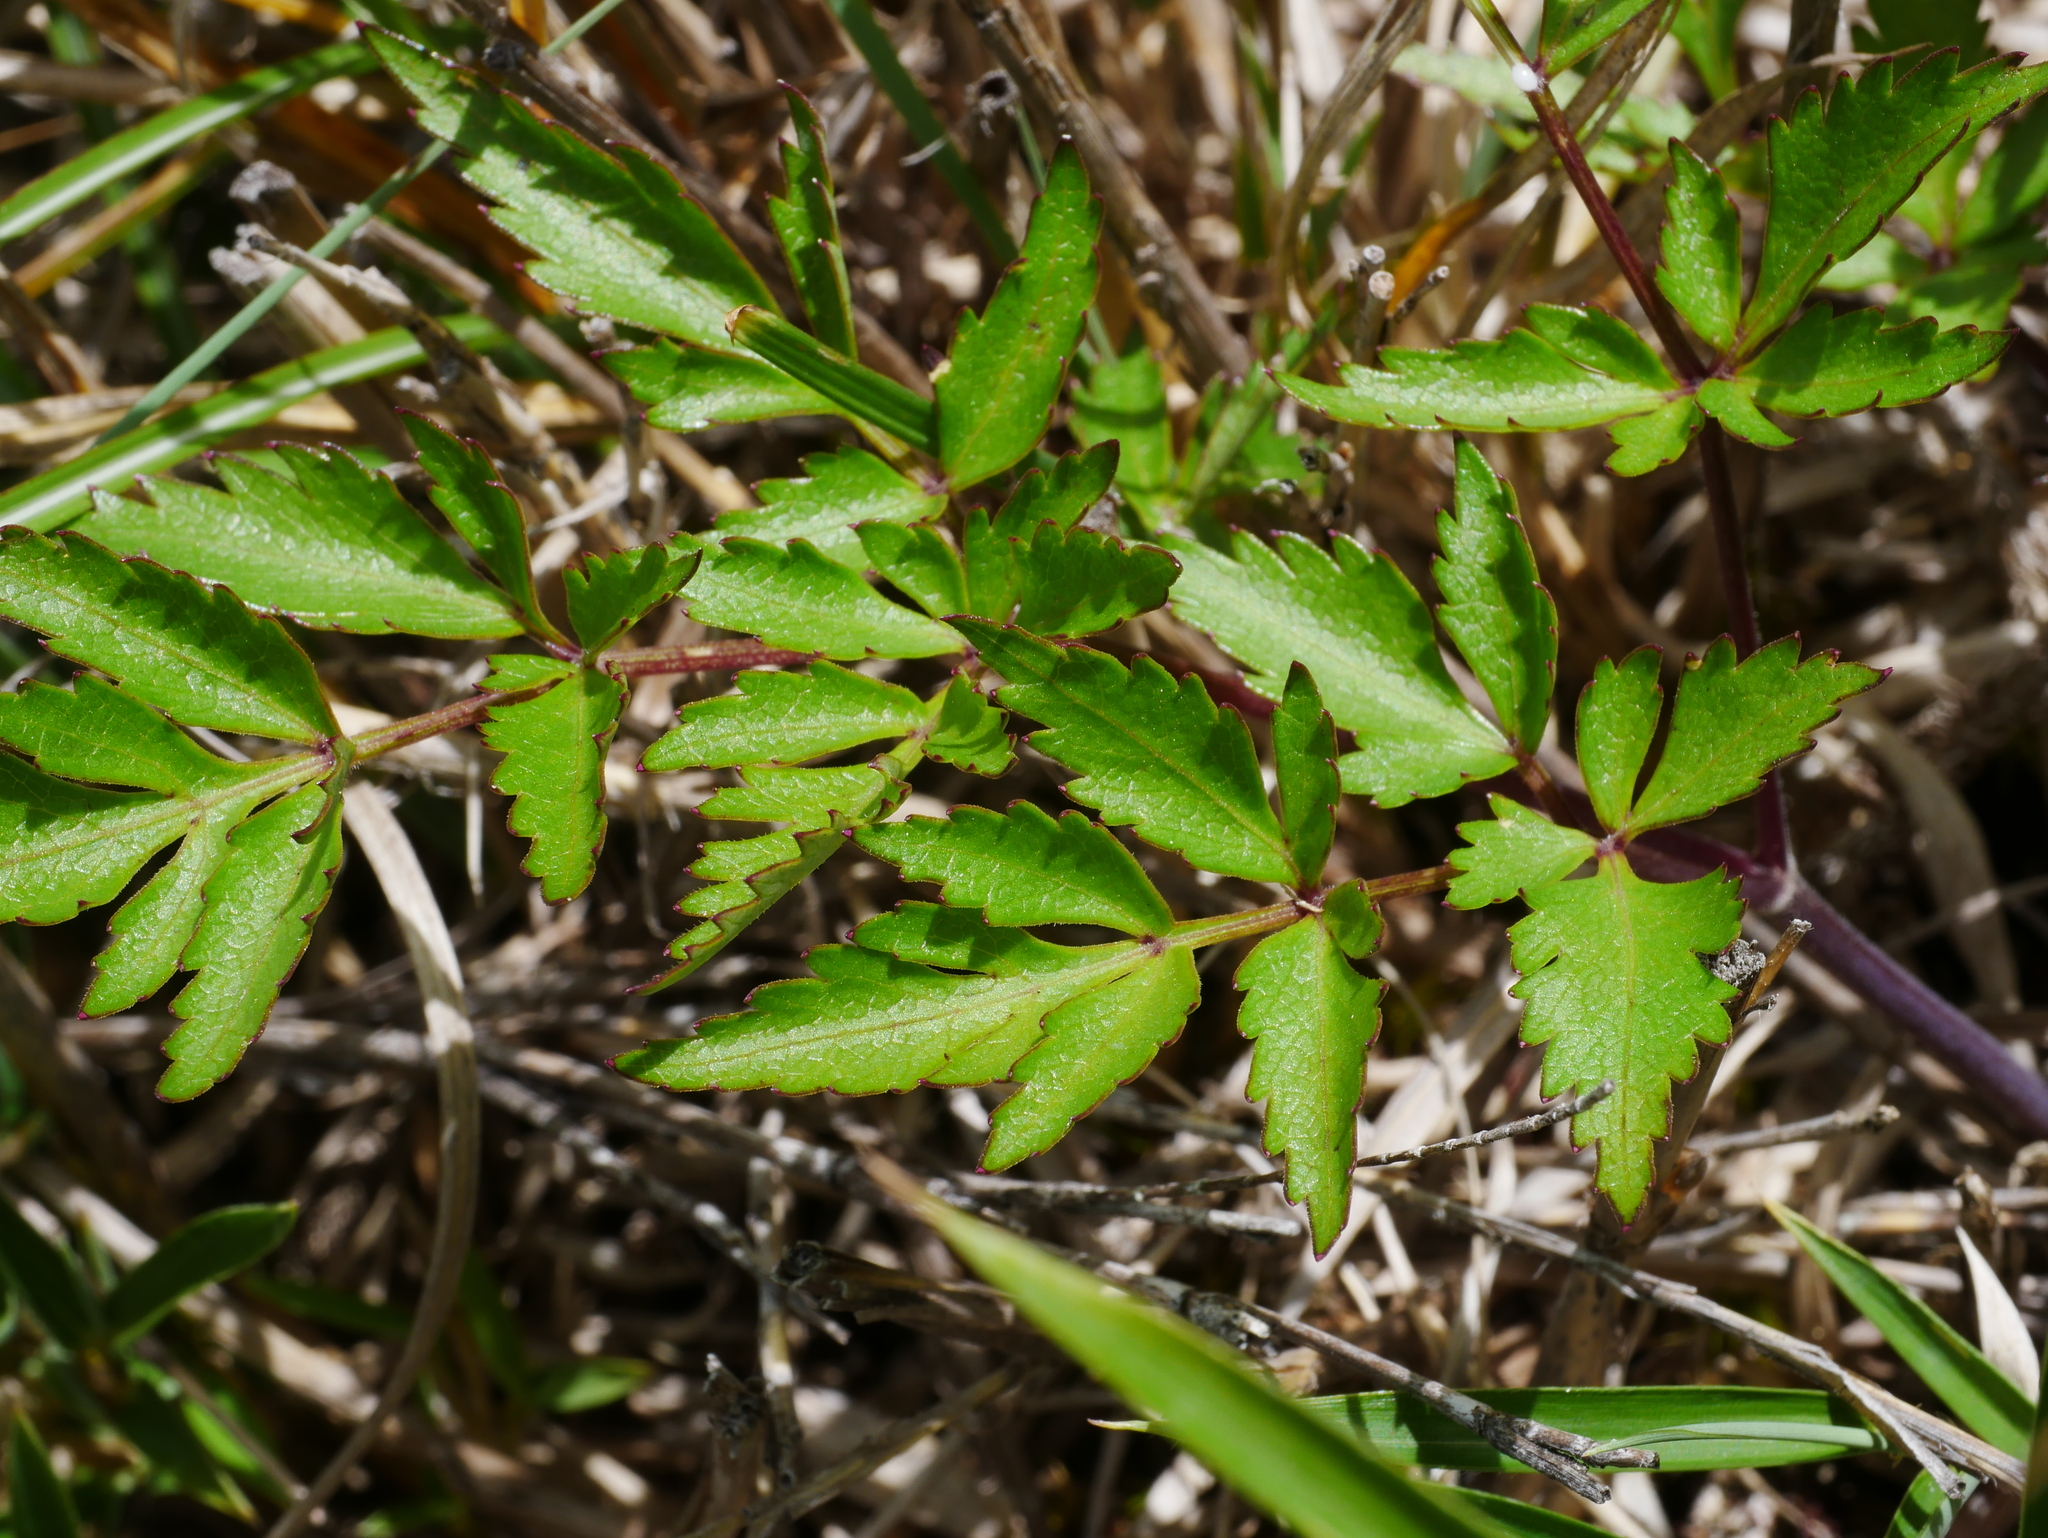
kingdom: Plantae
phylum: Tracheophyta
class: Magnoliopsida
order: Apiales
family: Apiaceae
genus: Angelica
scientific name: Angelica morii
